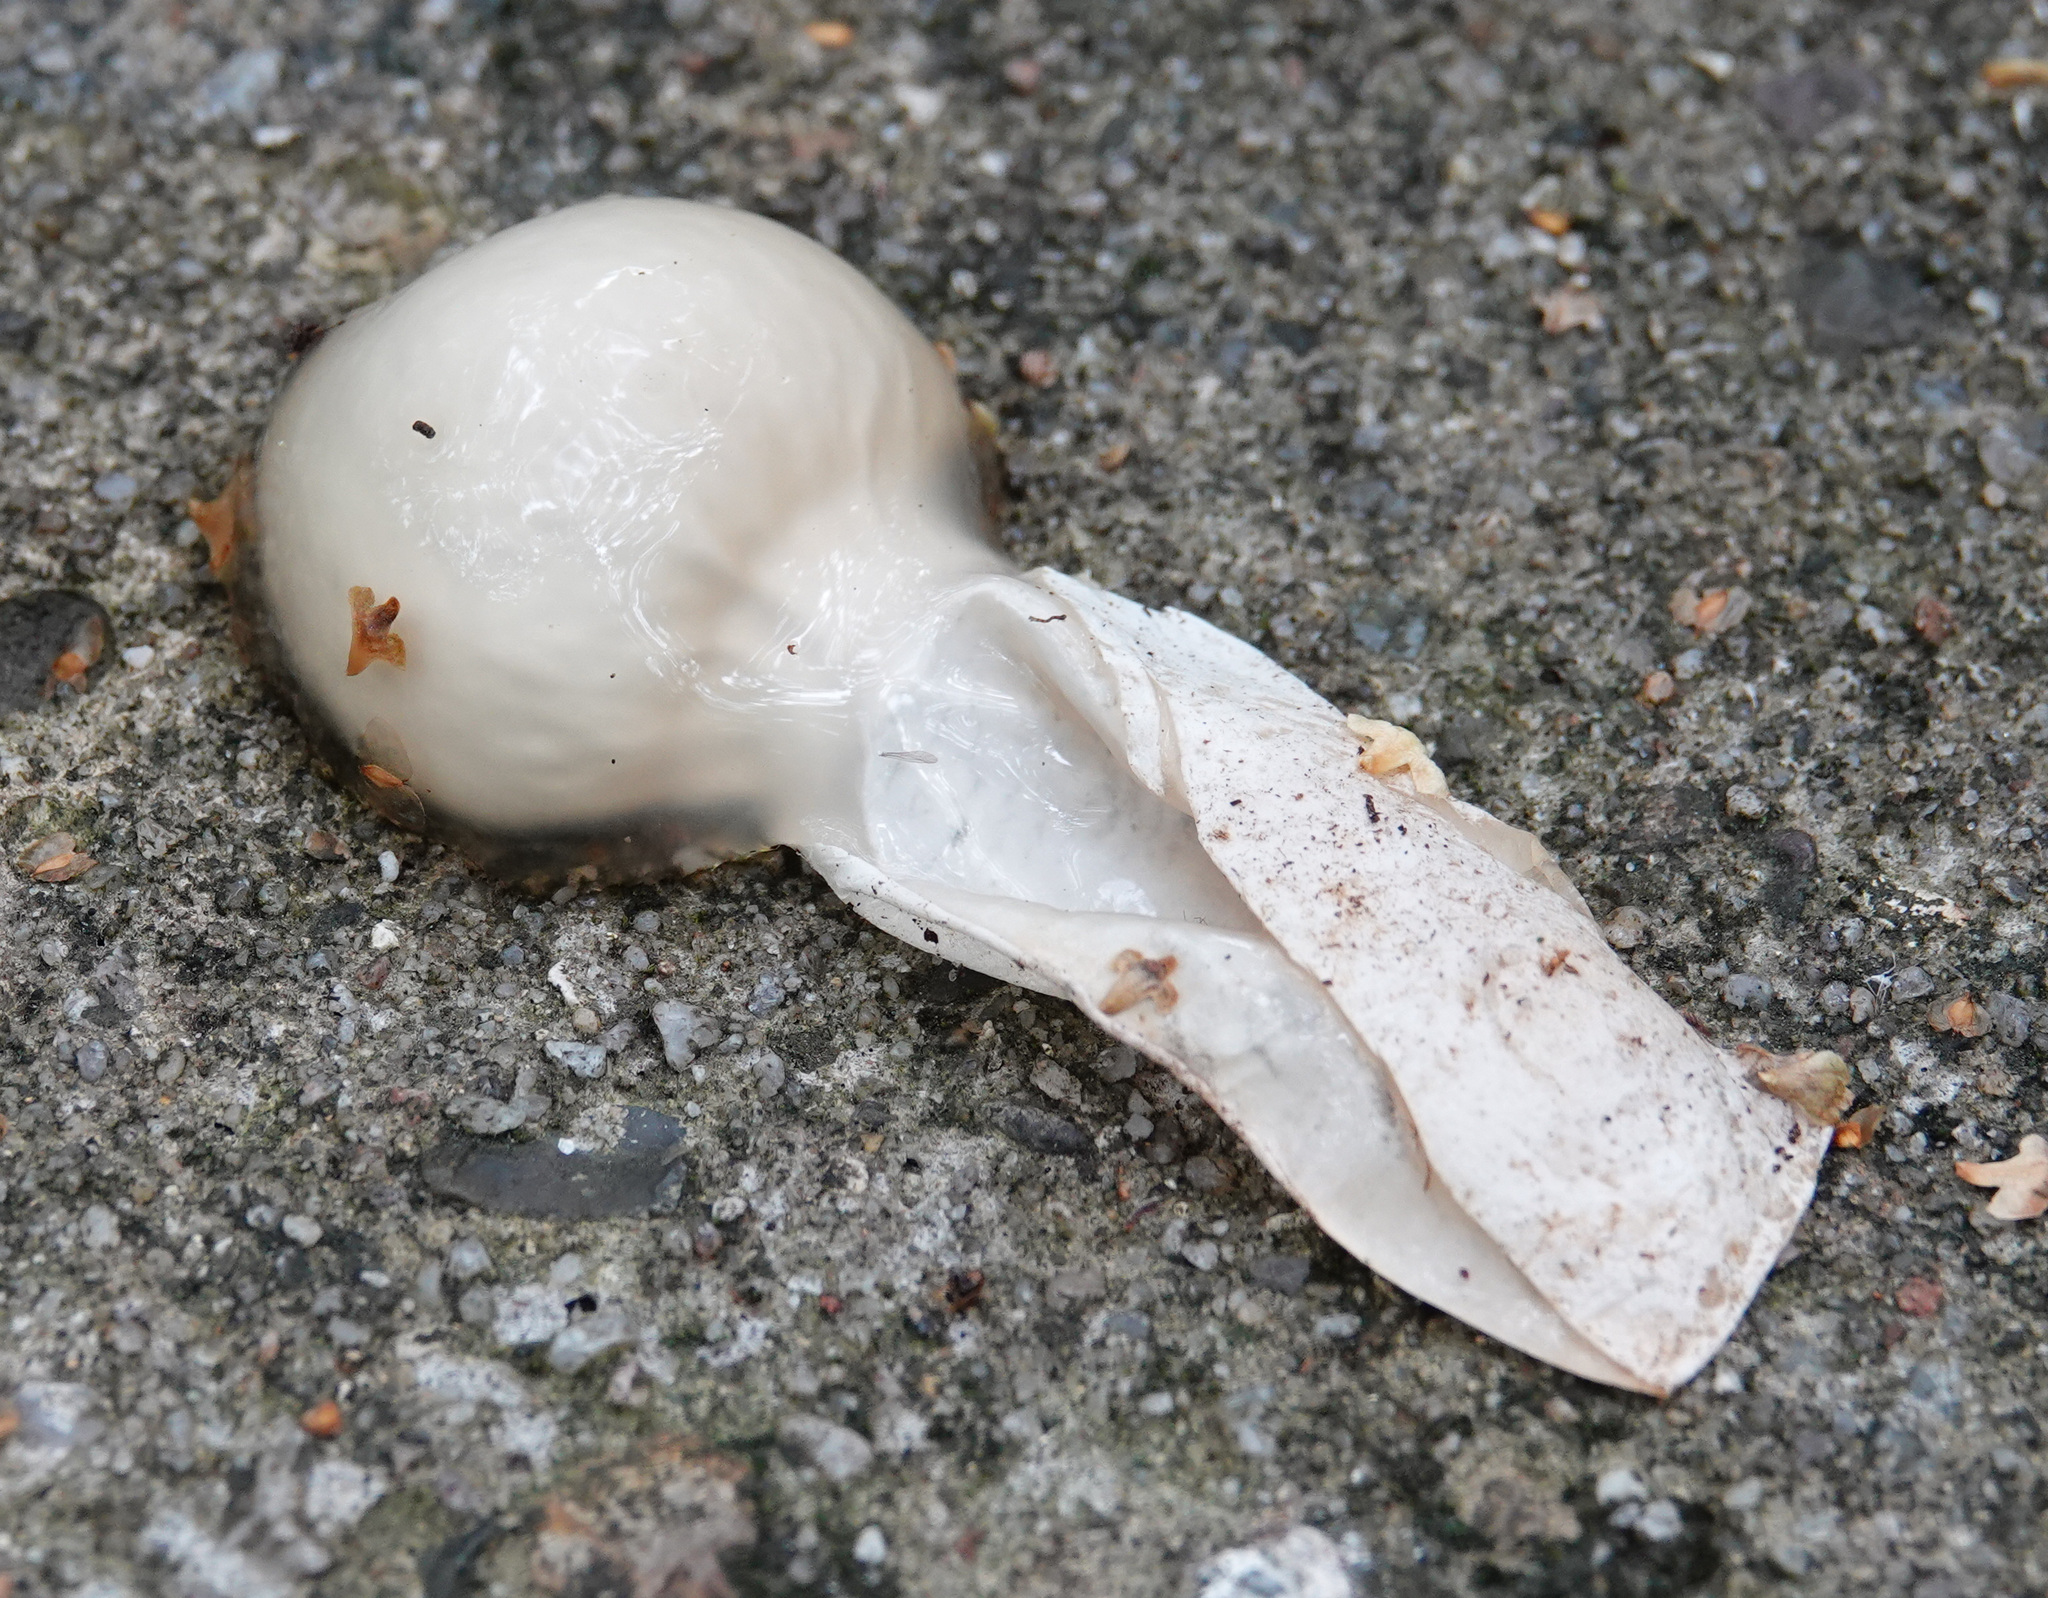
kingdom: Fungi
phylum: Basidiomycota
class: Agaricomycetes
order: Phallales
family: Phallaceae
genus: Phallus
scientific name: Phallus impudicus
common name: Common stinkhorn
